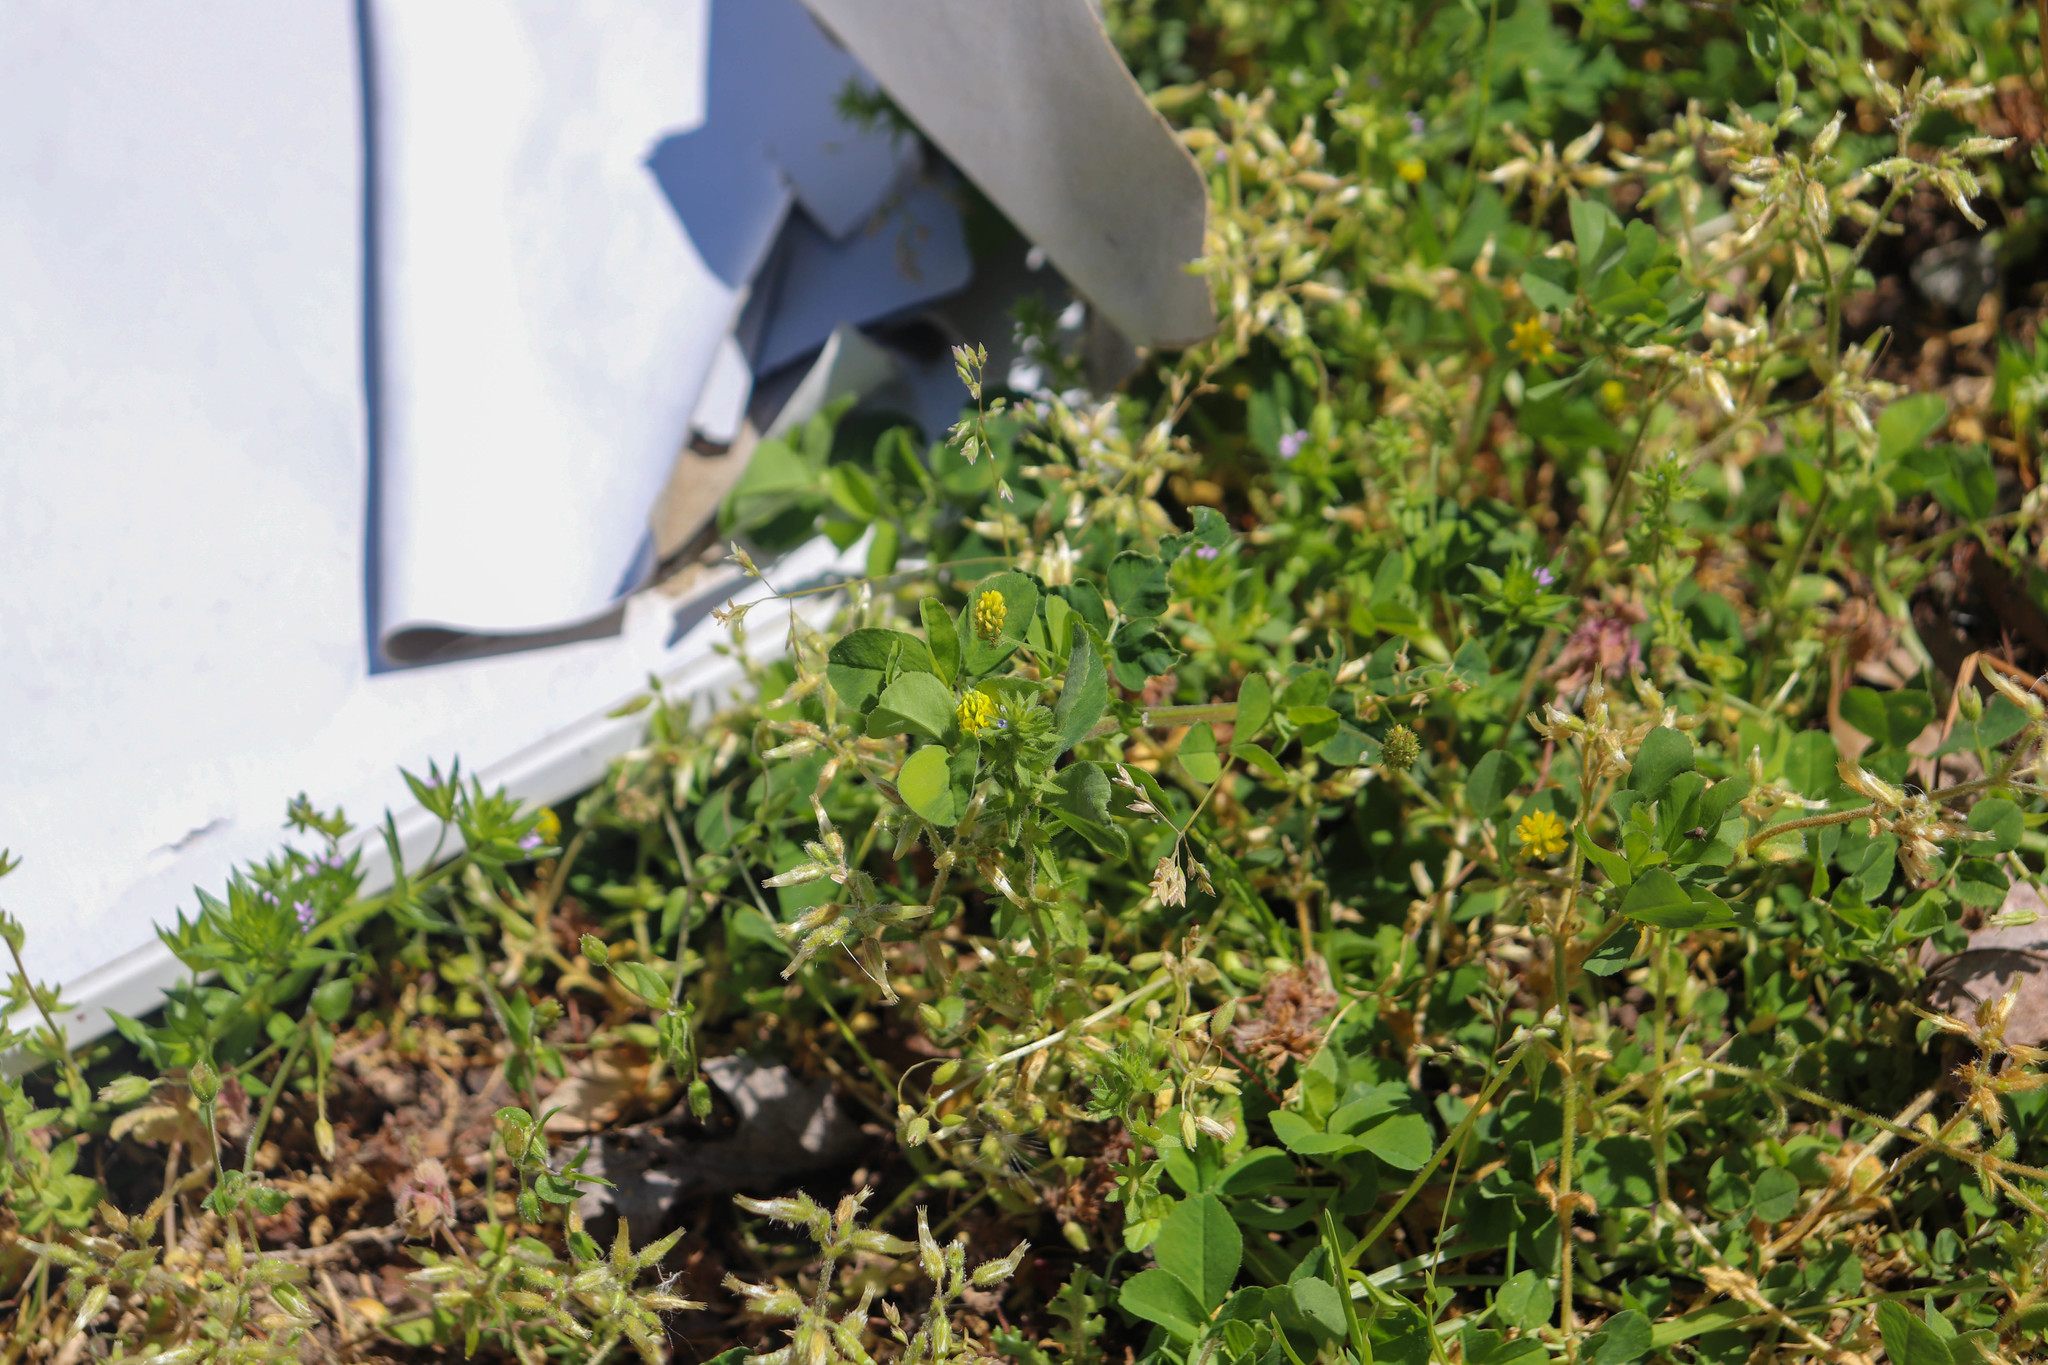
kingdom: Plantae
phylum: Tracheophyta
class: Magnoliopsida
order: Fabales
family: Fabaceae
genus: Medicago
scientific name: Medicago lupulina
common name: Black medick
